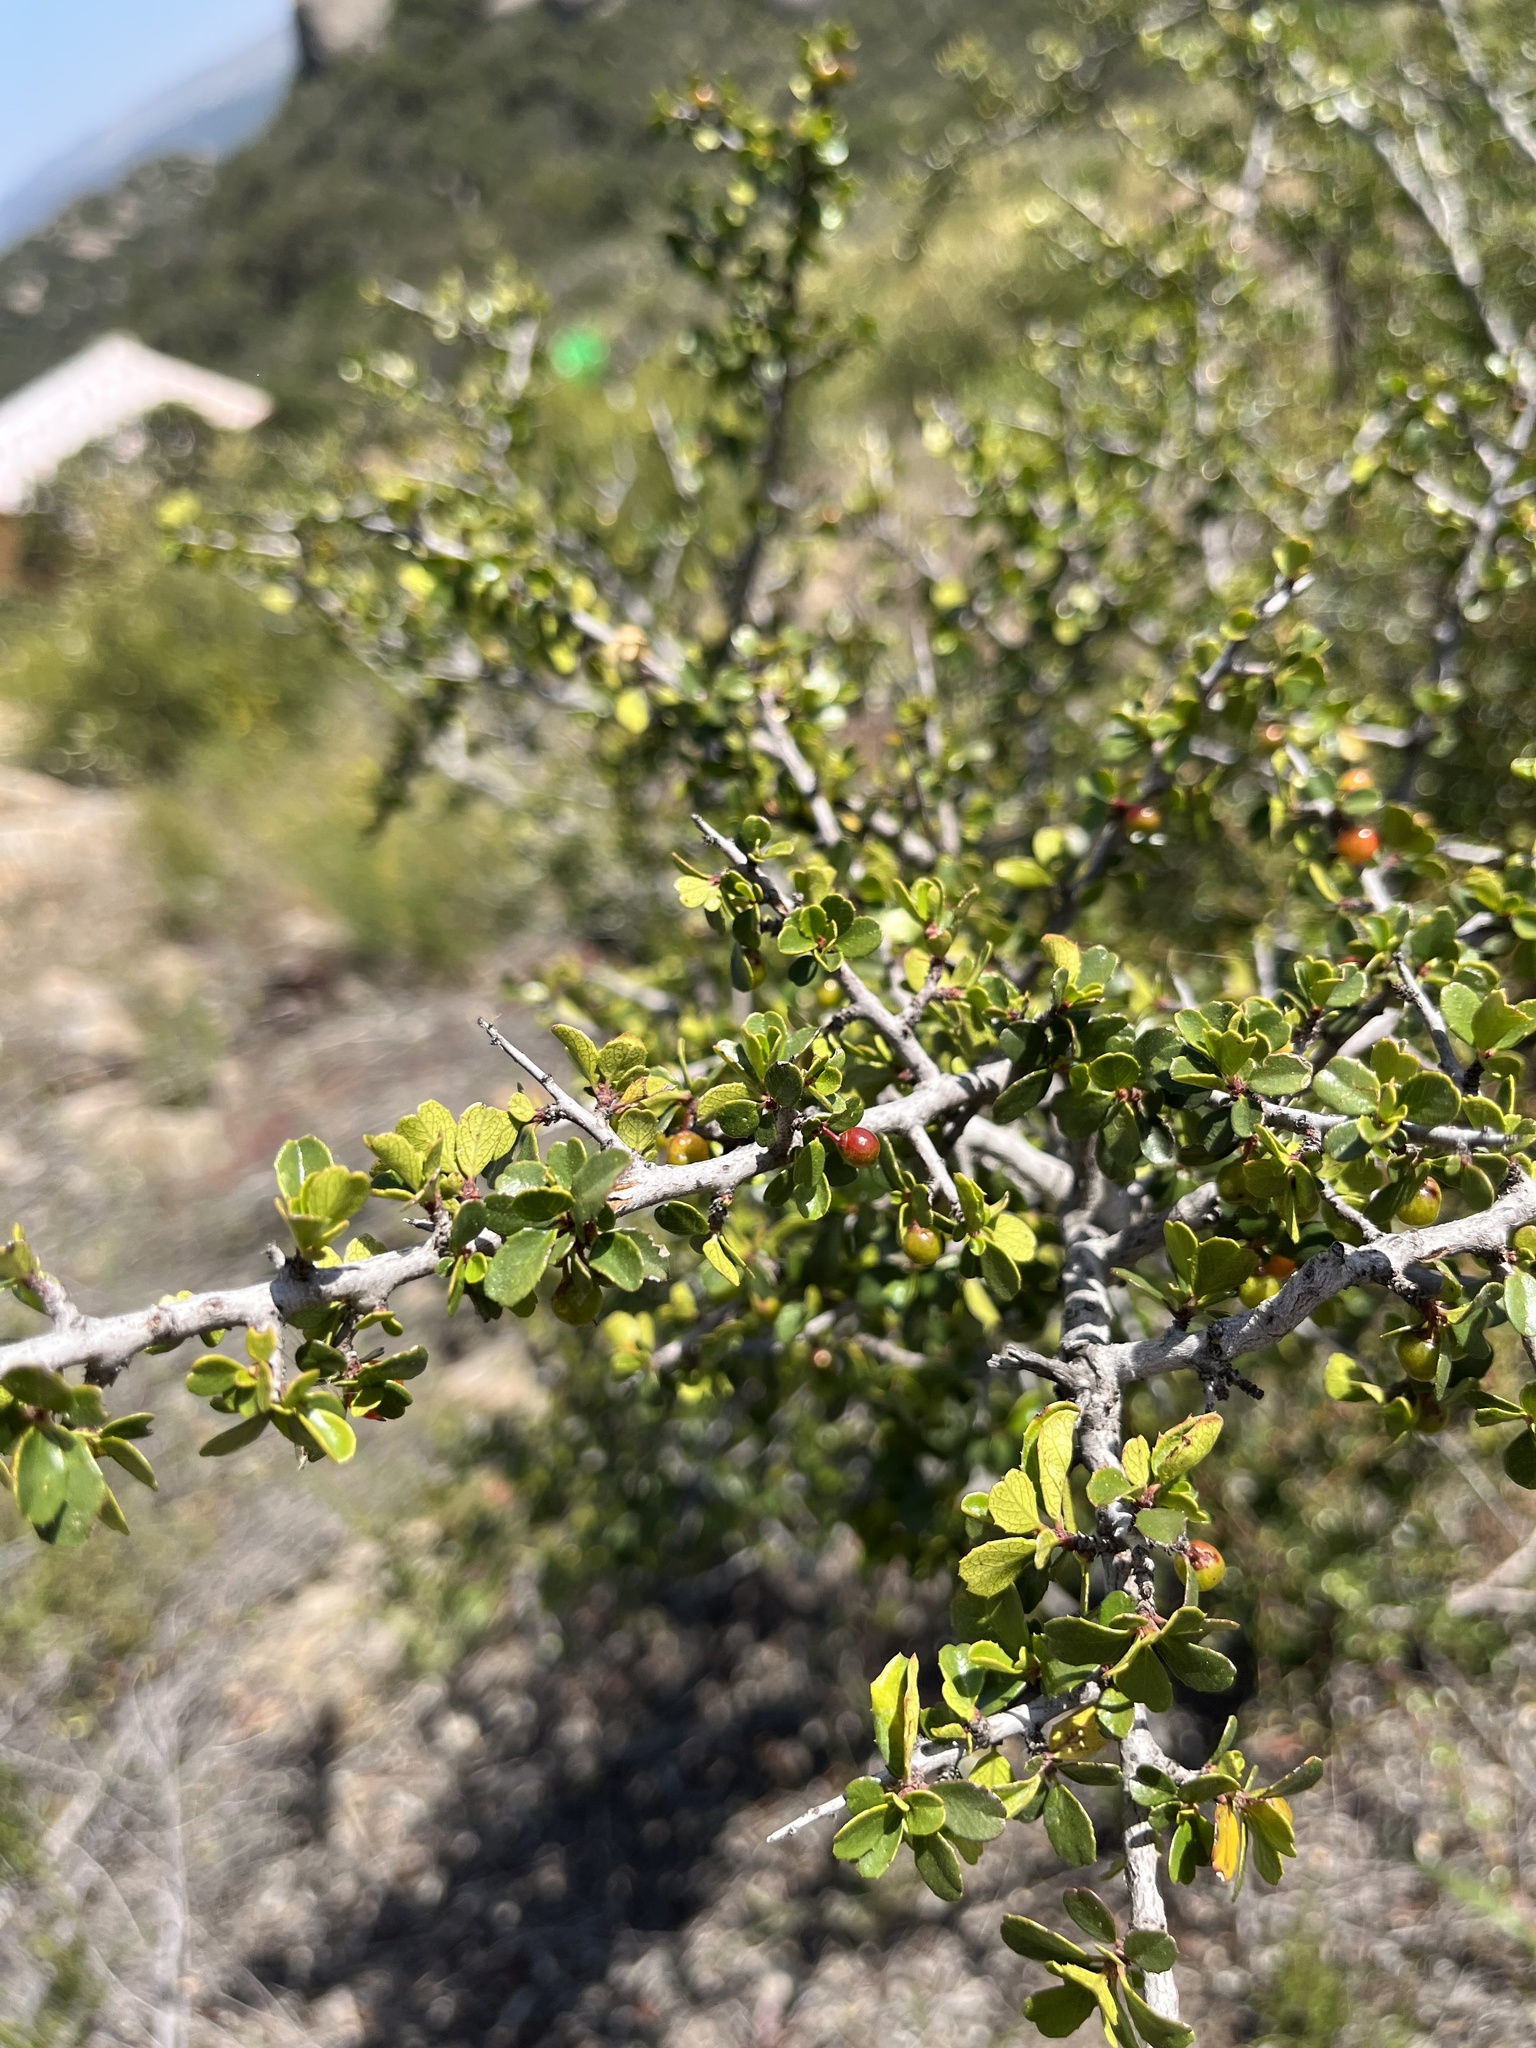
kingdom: Plantae
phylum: Tracheophyta
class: Magnoliopsida
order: Rosales
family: Rhamnaceae
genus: Endotropis
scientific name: Endotropis crocea
